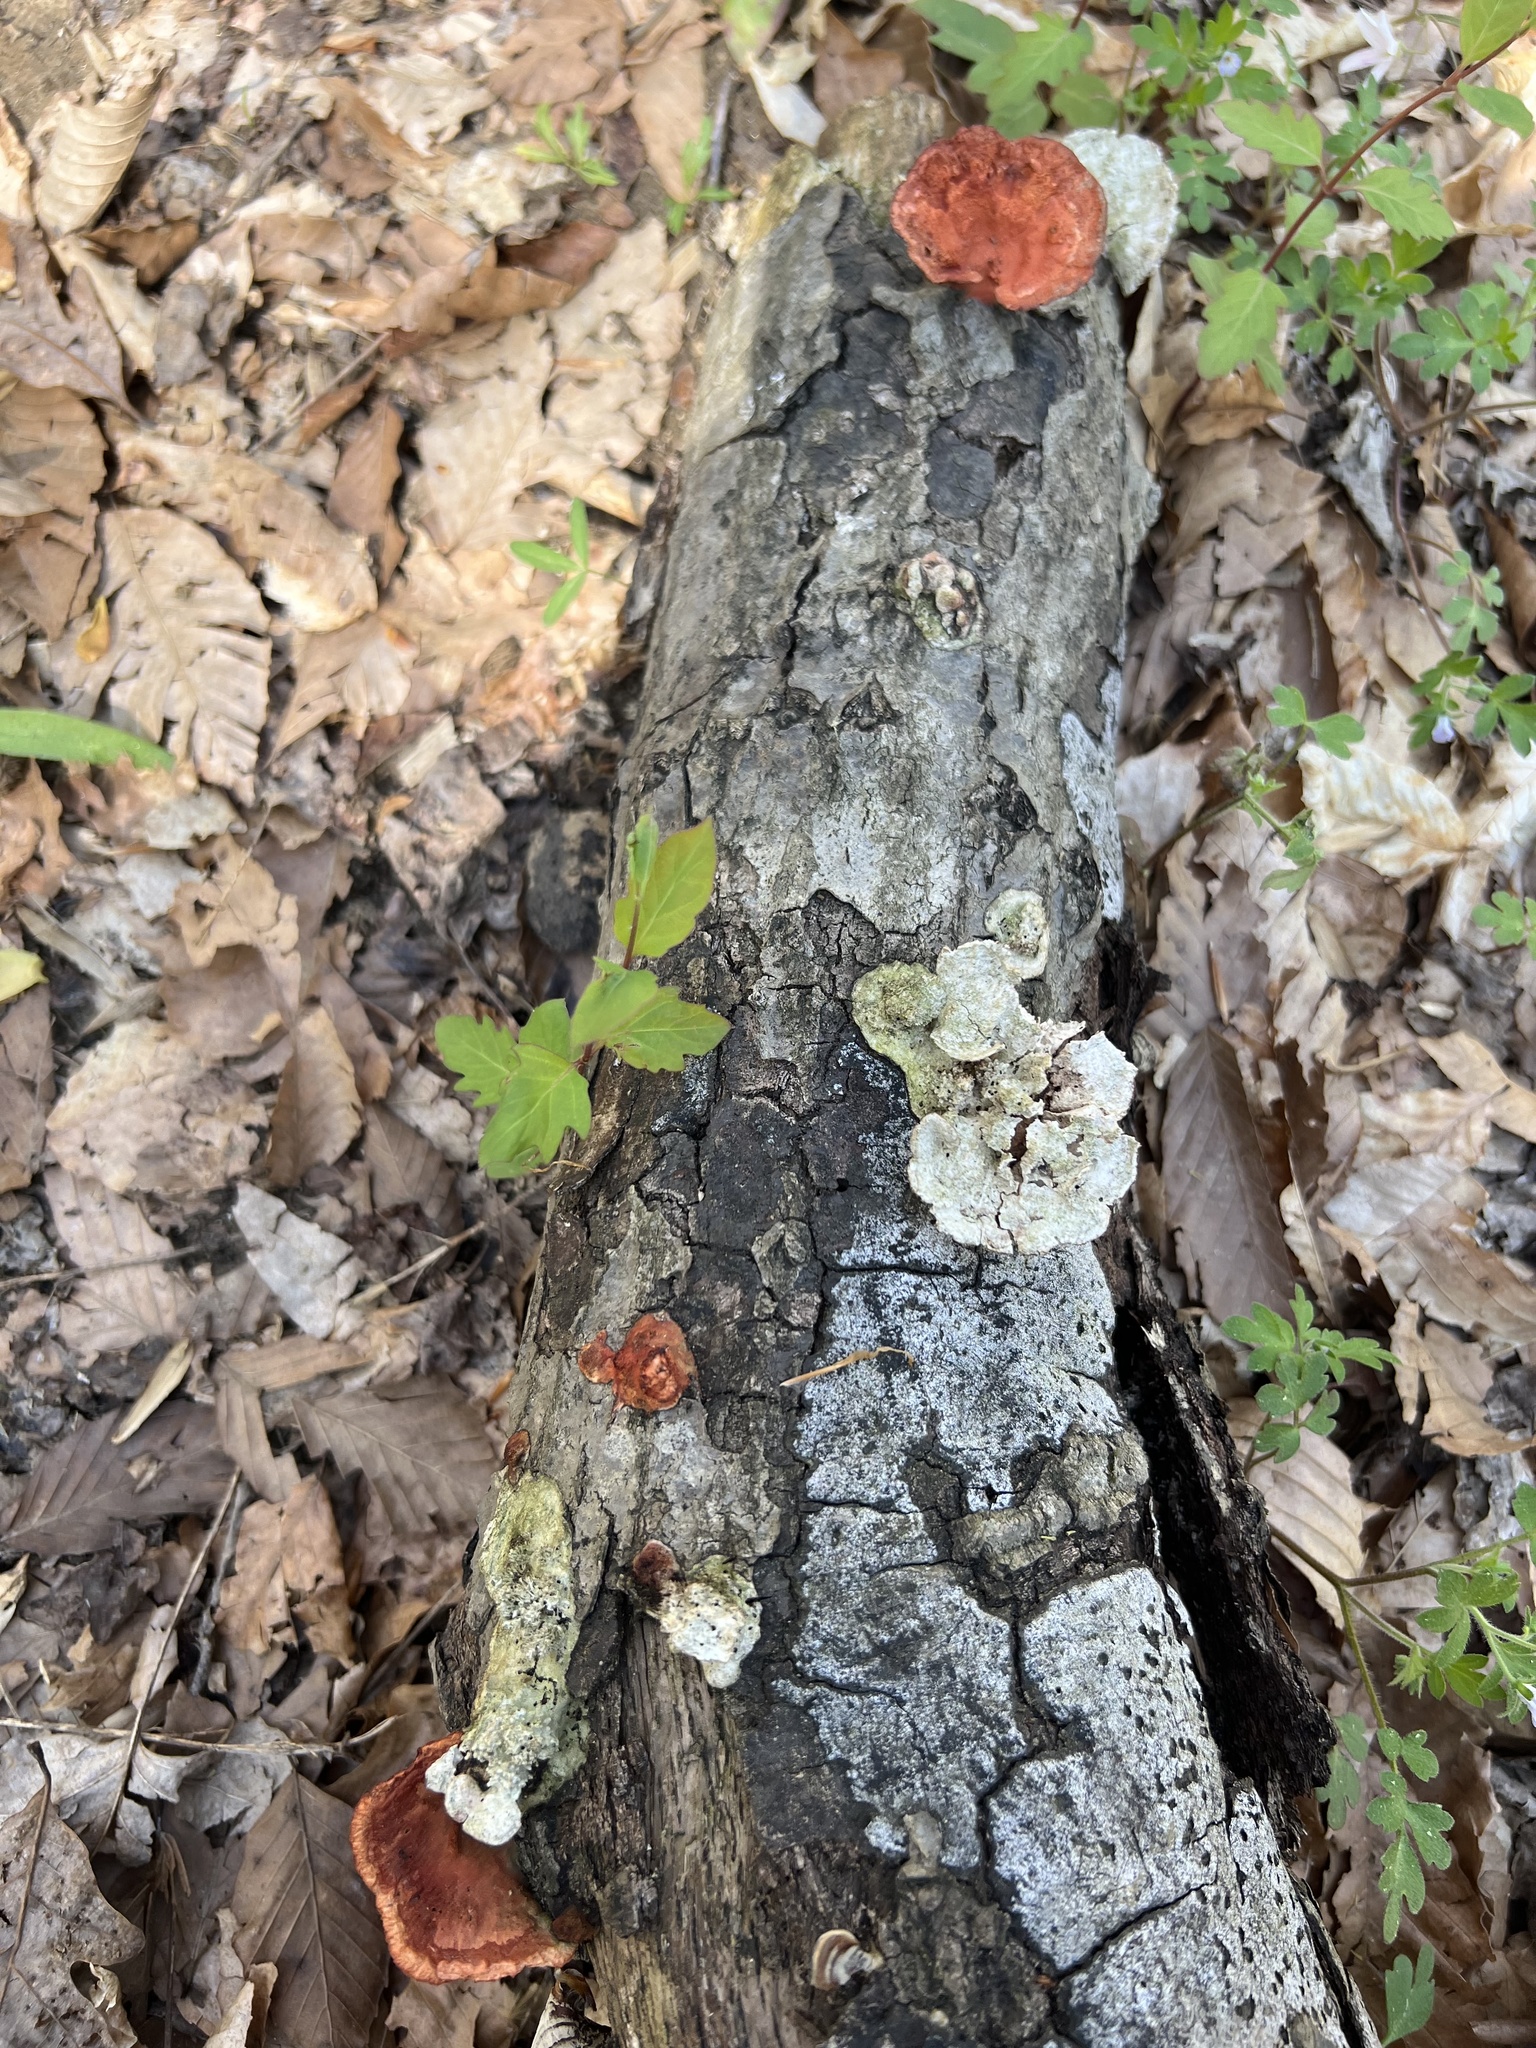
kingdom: Fungi
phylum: Basidiomycota
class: Agaricomycetes
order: Polyporales
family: Polyporaceae
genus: Trametes
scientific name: Trametes cinnabarina
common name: Northern cinnabar polypore
